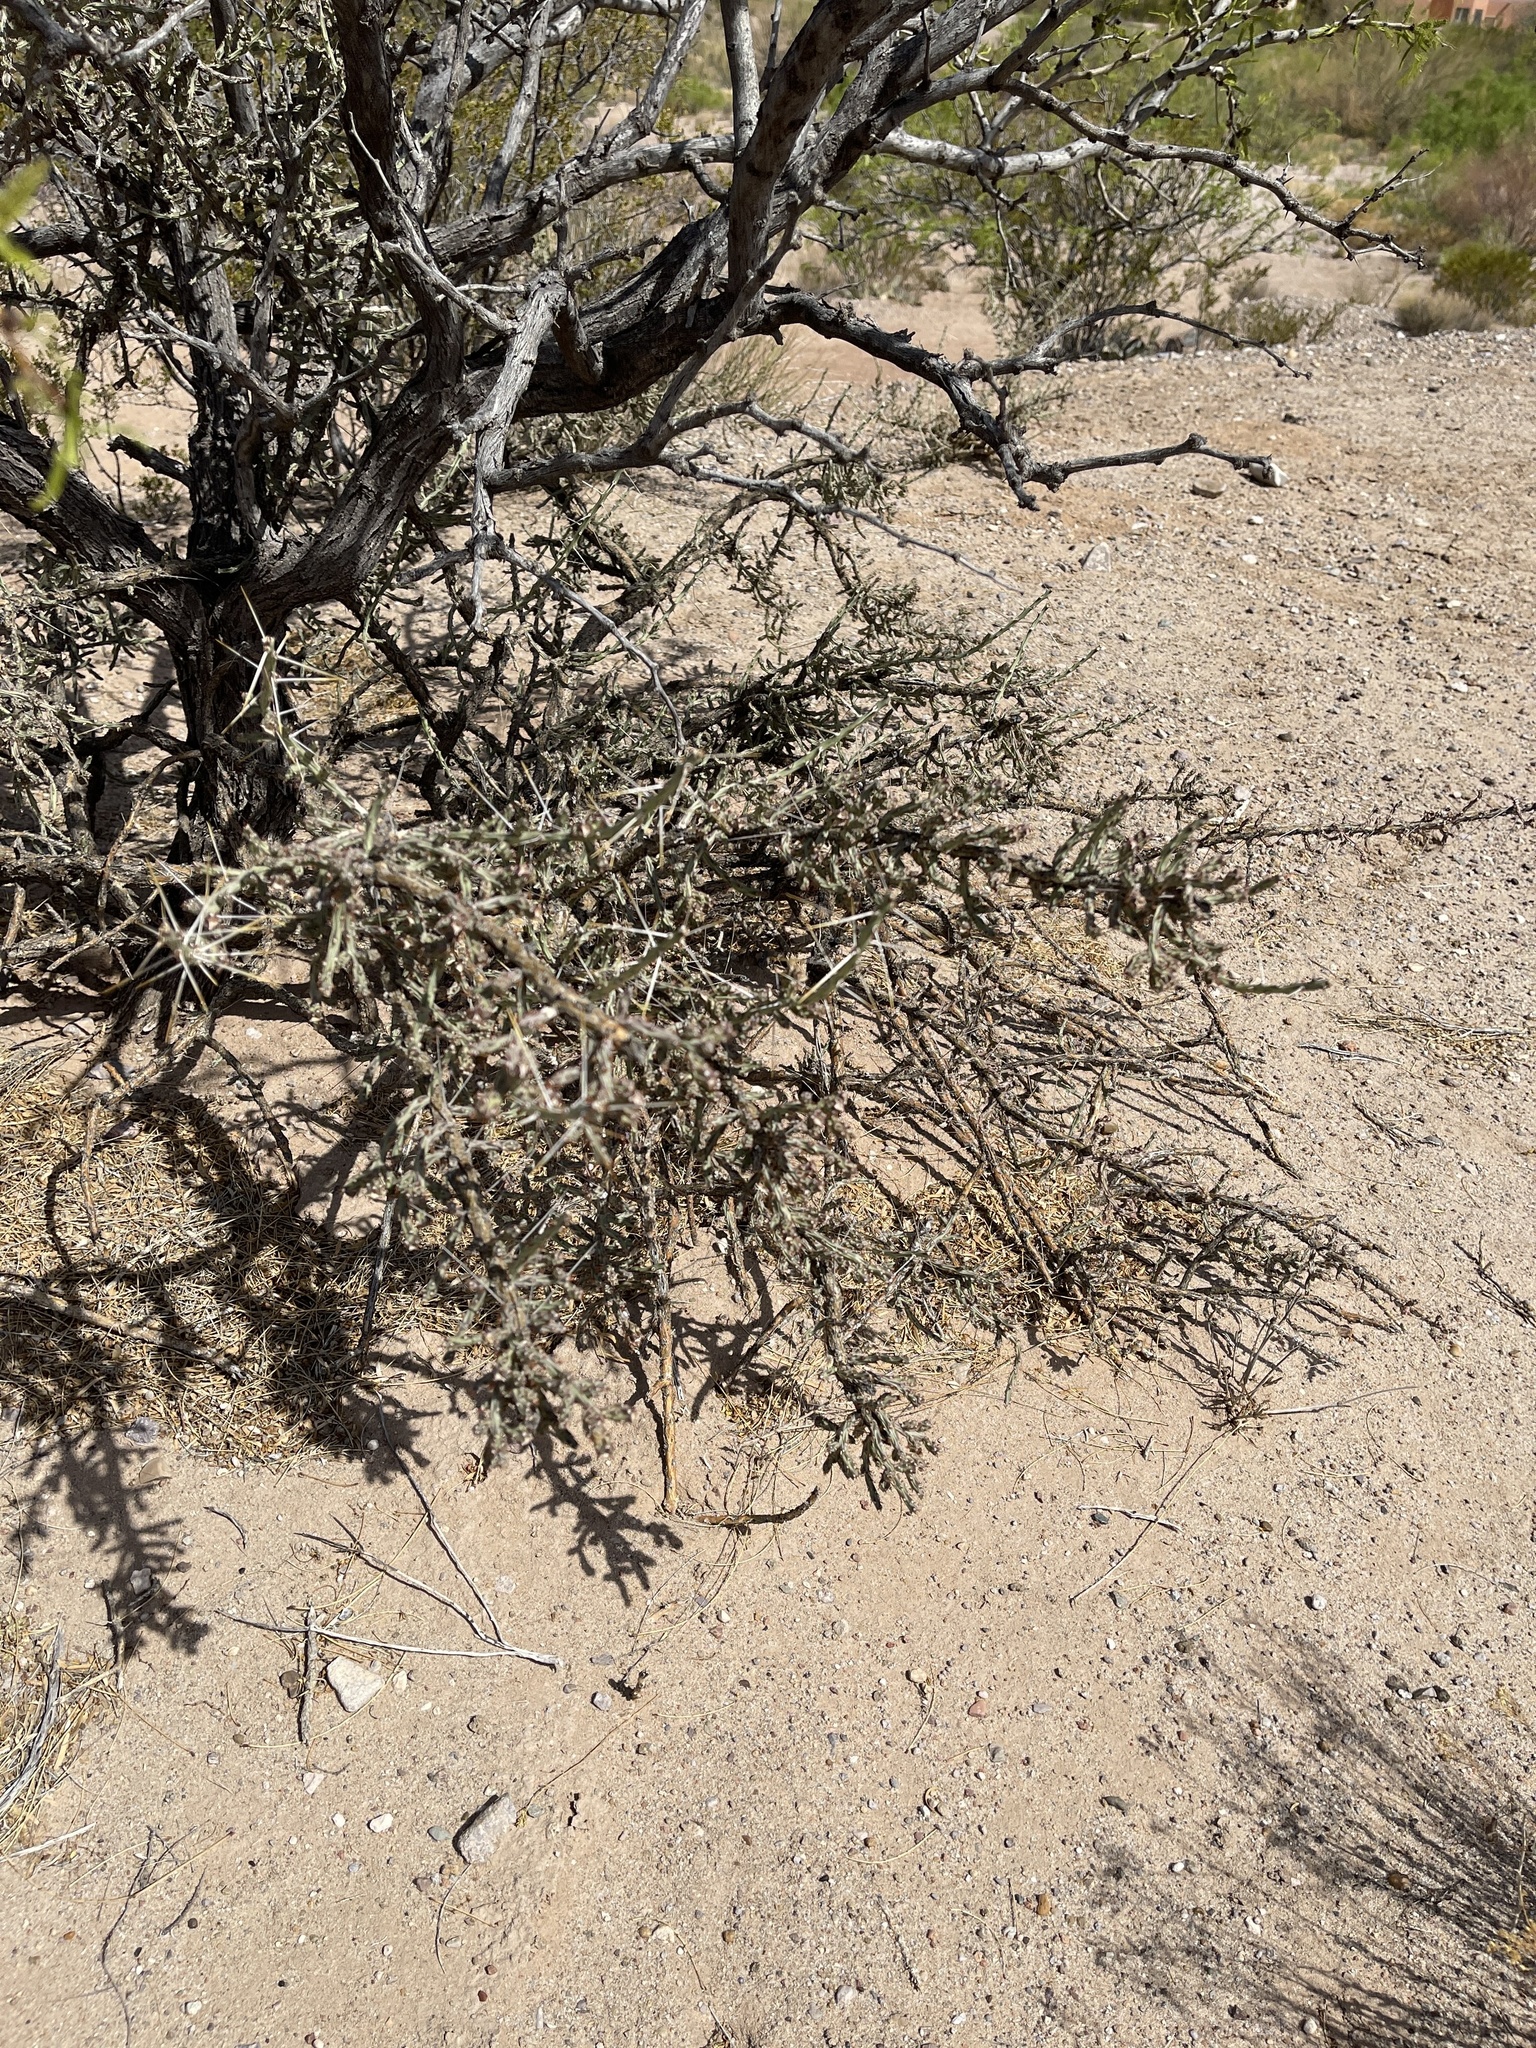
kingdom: Plantae
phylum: Tracheophyta
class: Magnoliopsida
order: Caryophyllales
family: Cactaceae
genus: Cylindropuntia
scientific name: Cylindropuntia leptocaulis
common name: Christmas cactus
